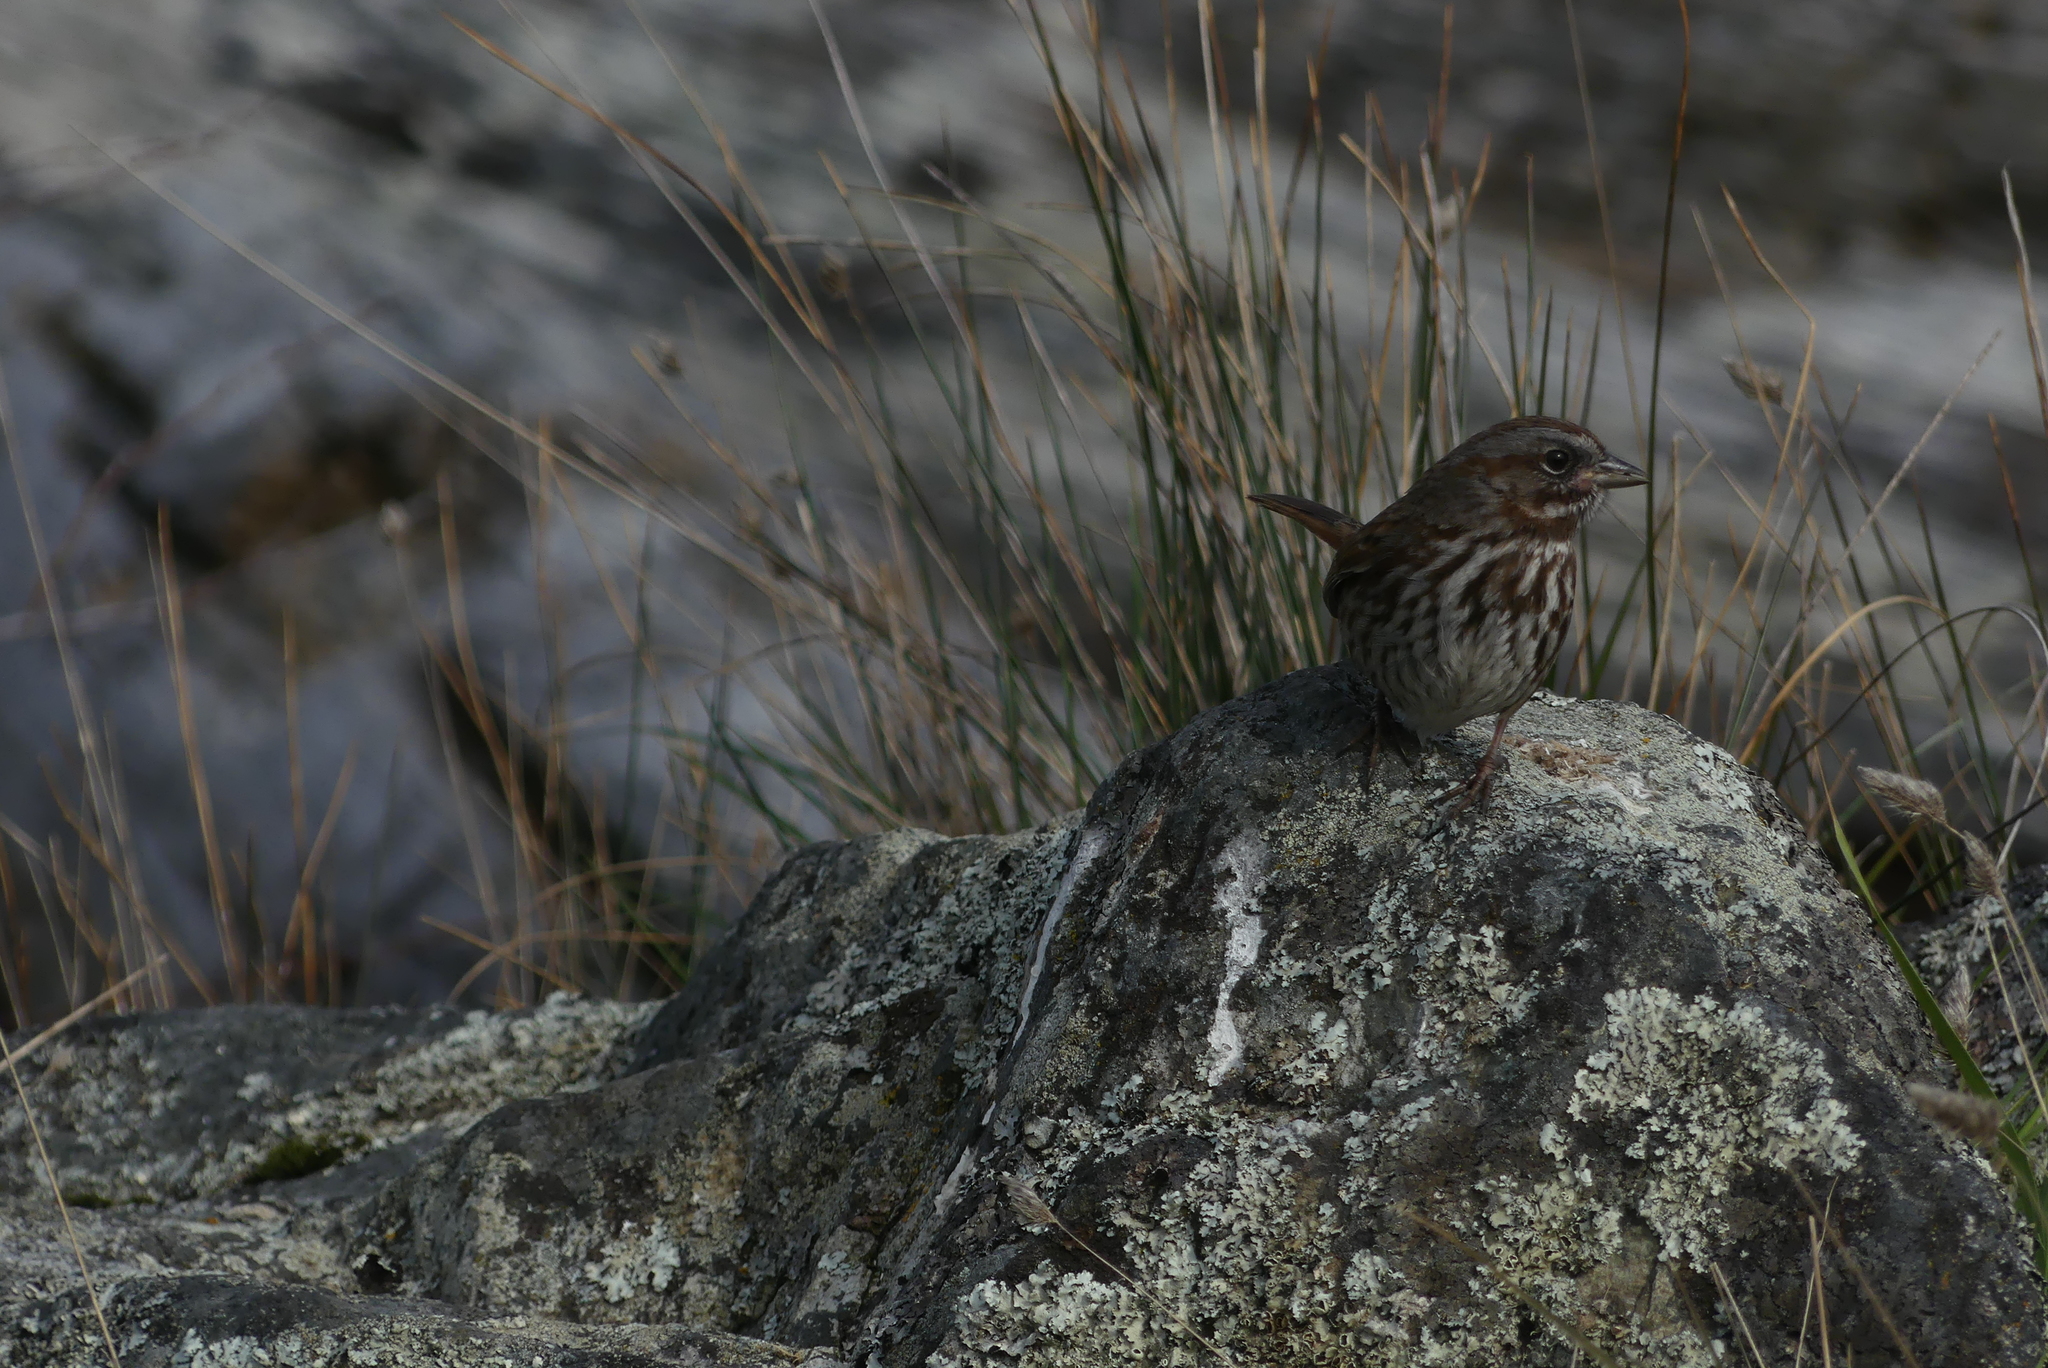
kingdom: Animalia
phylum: Chordata
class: Aves
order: Passeriformes
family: Passerellidae
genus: Melospiza
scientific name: Melospiza melodia
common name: Song sparrow
